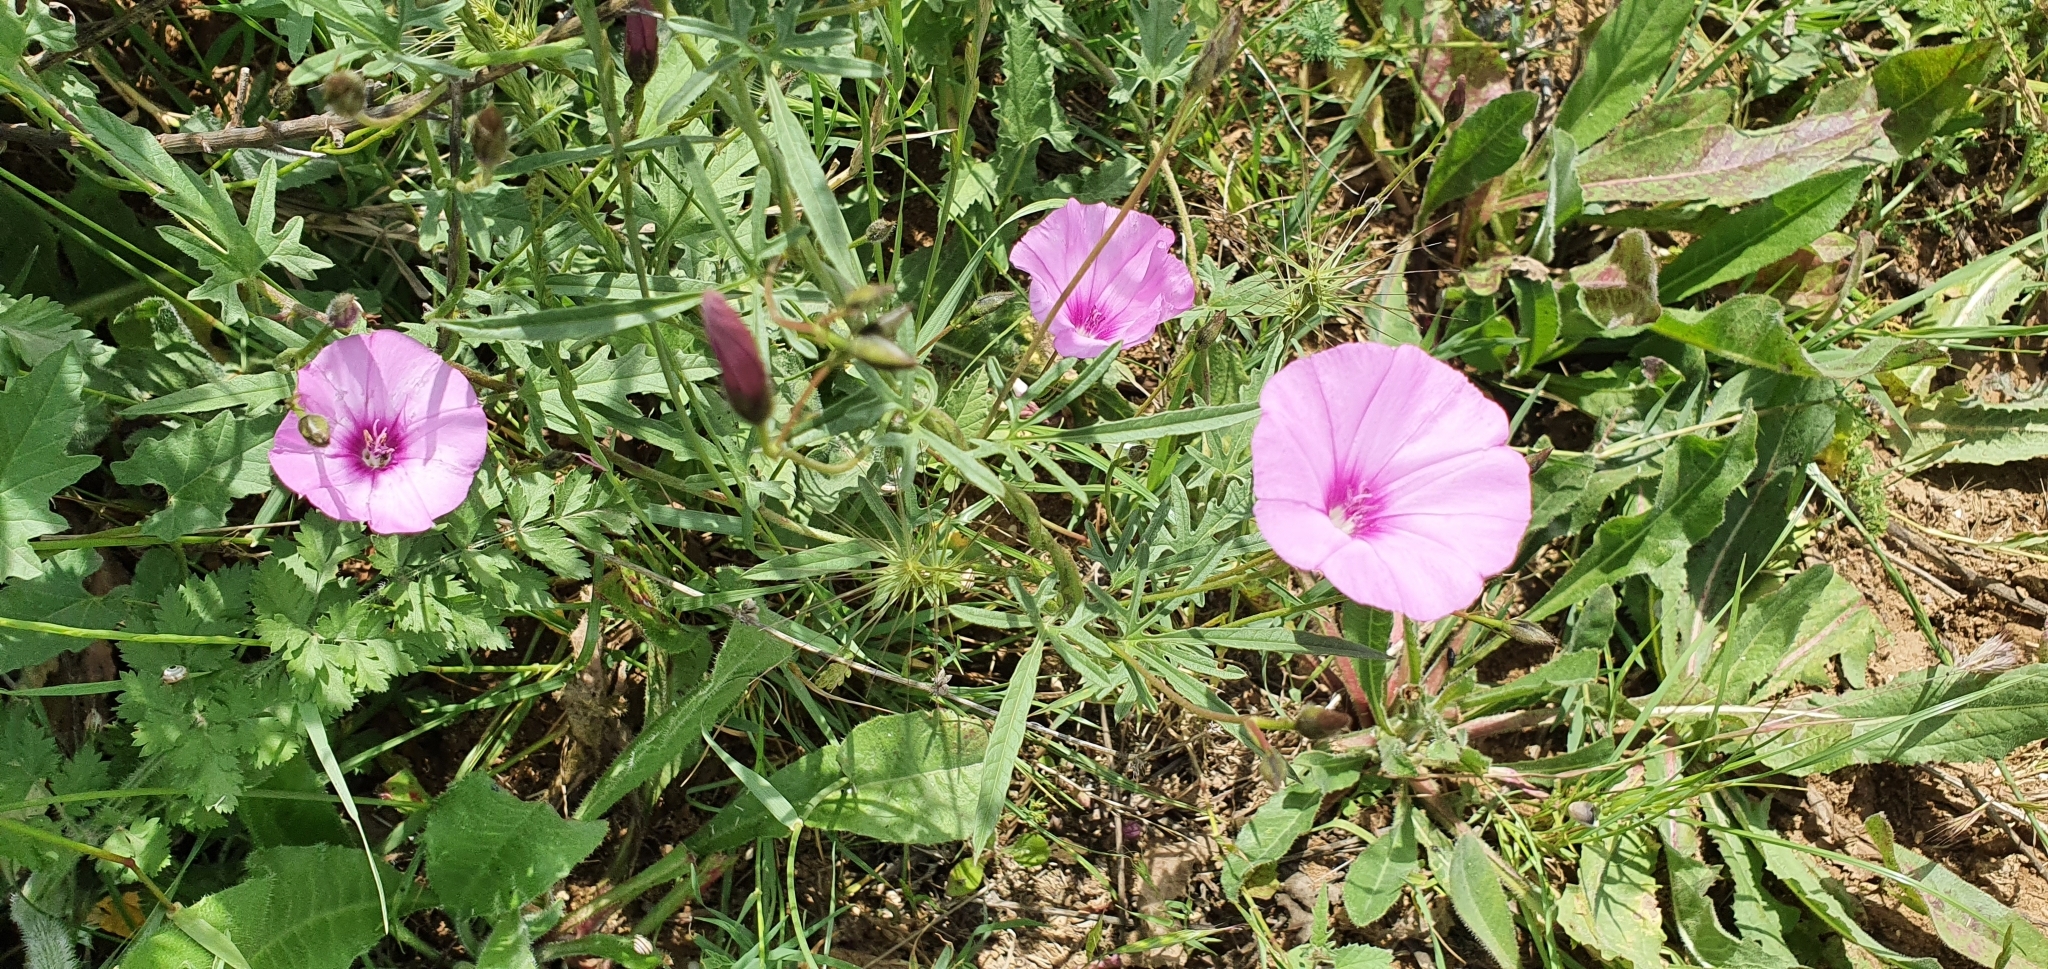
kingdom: Plantae
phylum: Tracheophyta
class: Magnoliopsida
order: Solanales
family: Convolvulaceae
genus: Convolvulus
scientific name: Convolvulus althaeoides
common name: Mallow bindweed
